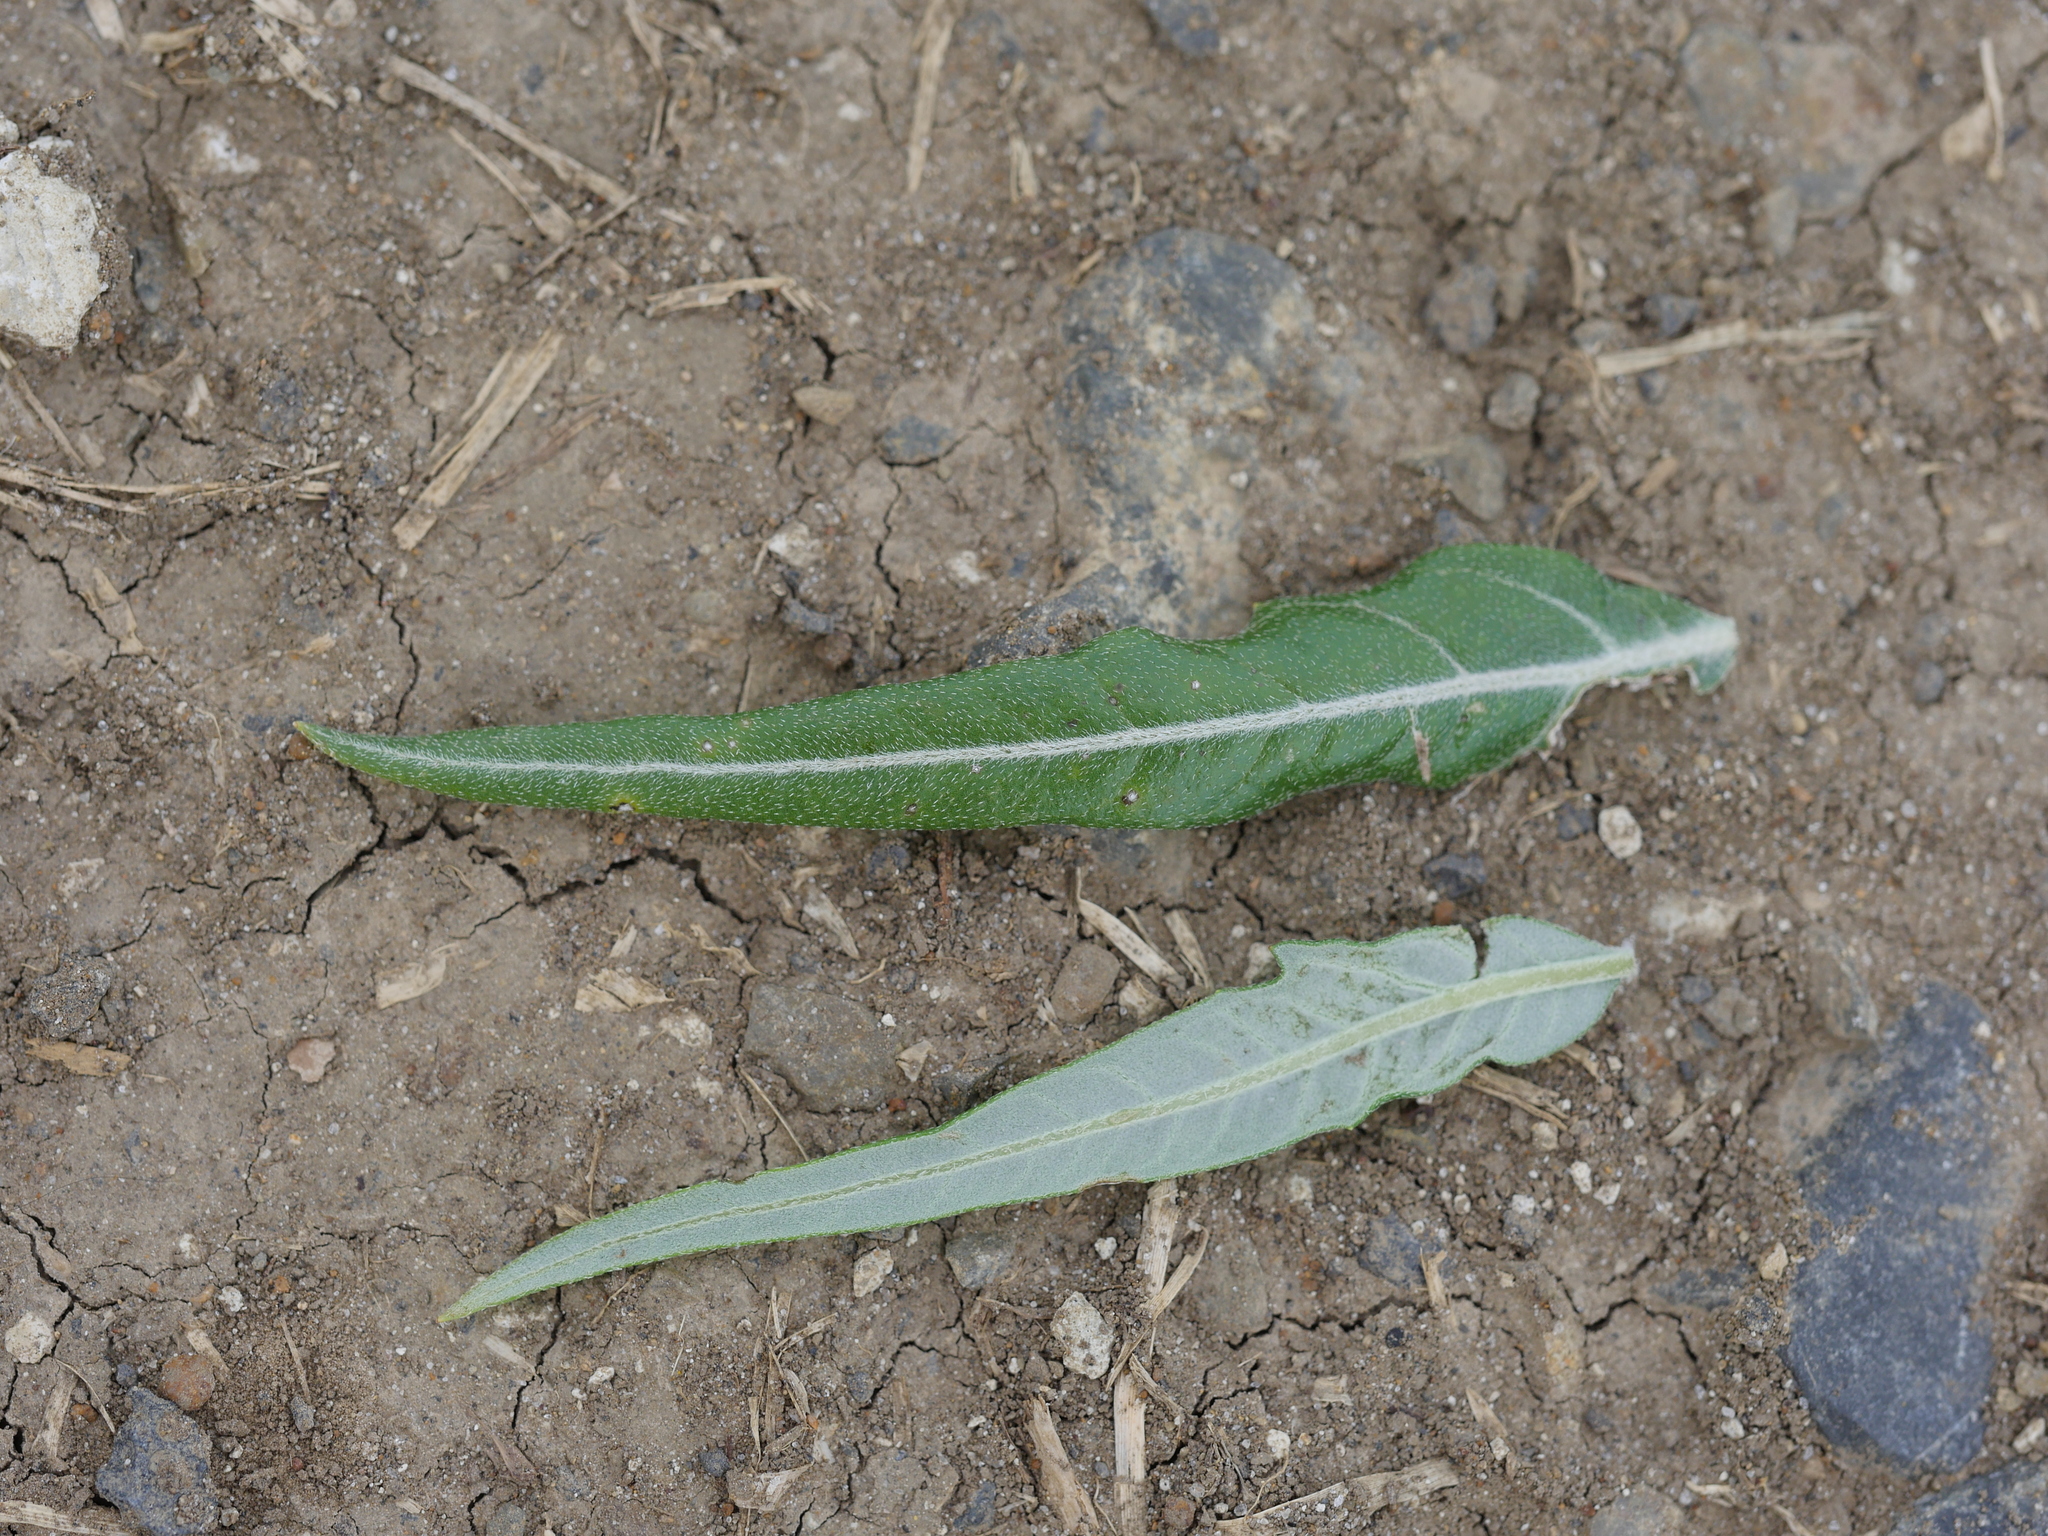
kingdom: Plantae
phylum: Tracheophyta
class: Magnoliopsida
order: Asterales
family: Asteraceae
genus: Xanthium
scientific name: Xanthium spinosum
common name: Spiny cocklebur
